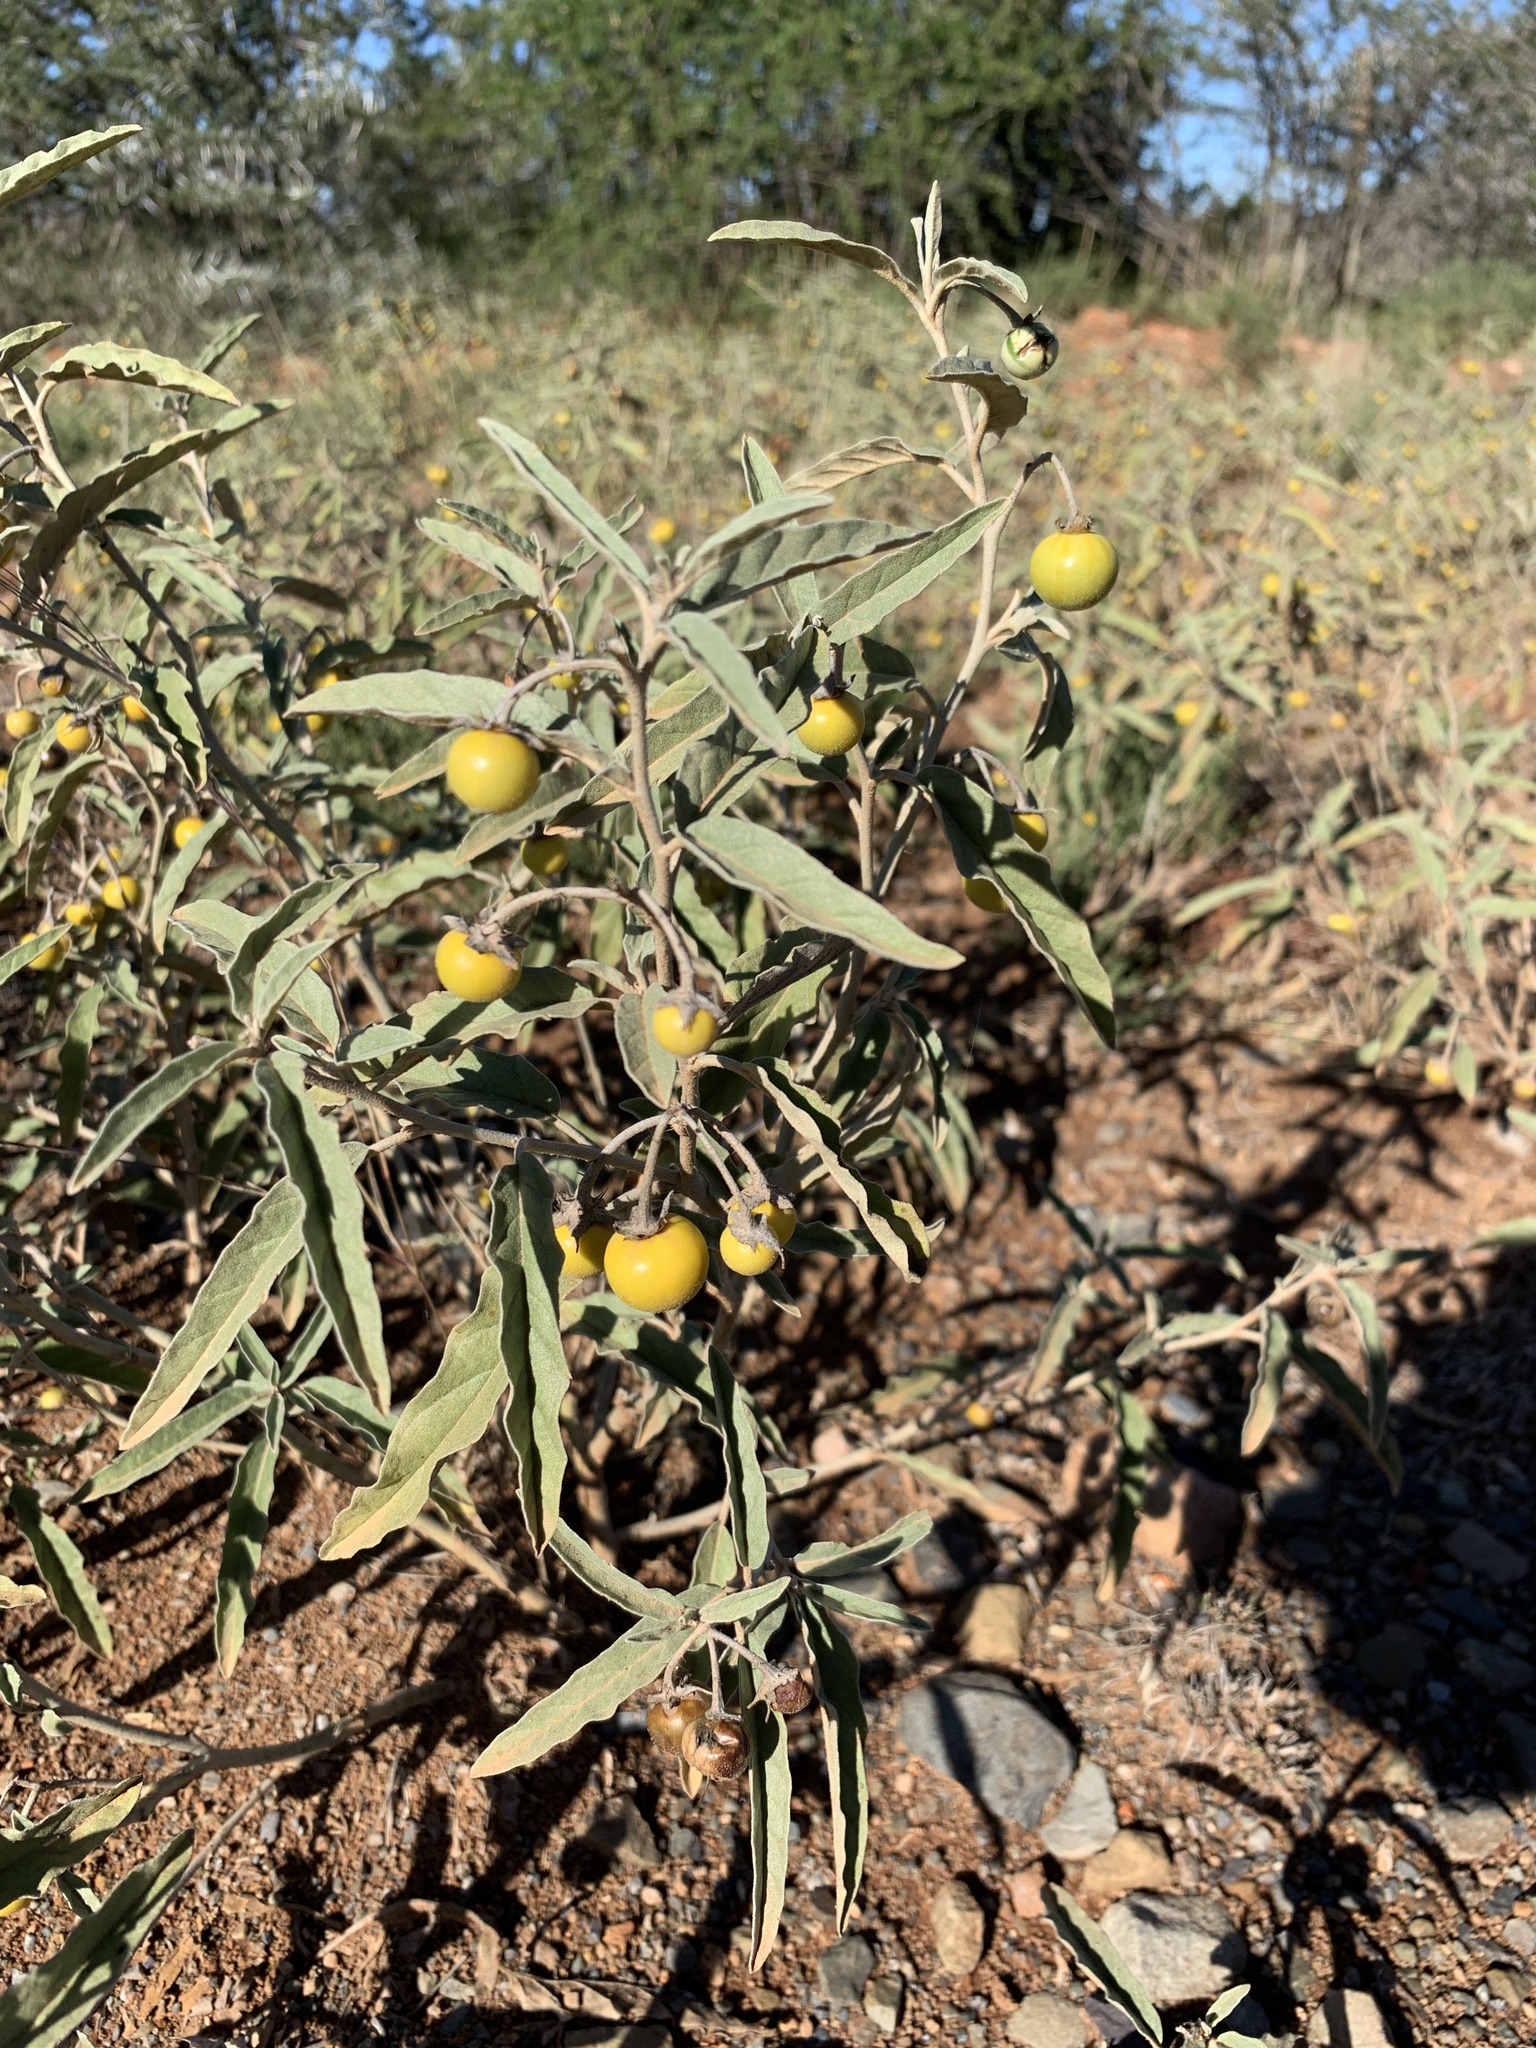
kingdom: Plantae
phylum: Tracheophyta
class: Magnoliopsida
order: Solanales
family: Solanaceae
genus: Solanum
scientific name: Solanum elaeagnifolium
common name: Silverleaf nightshade
